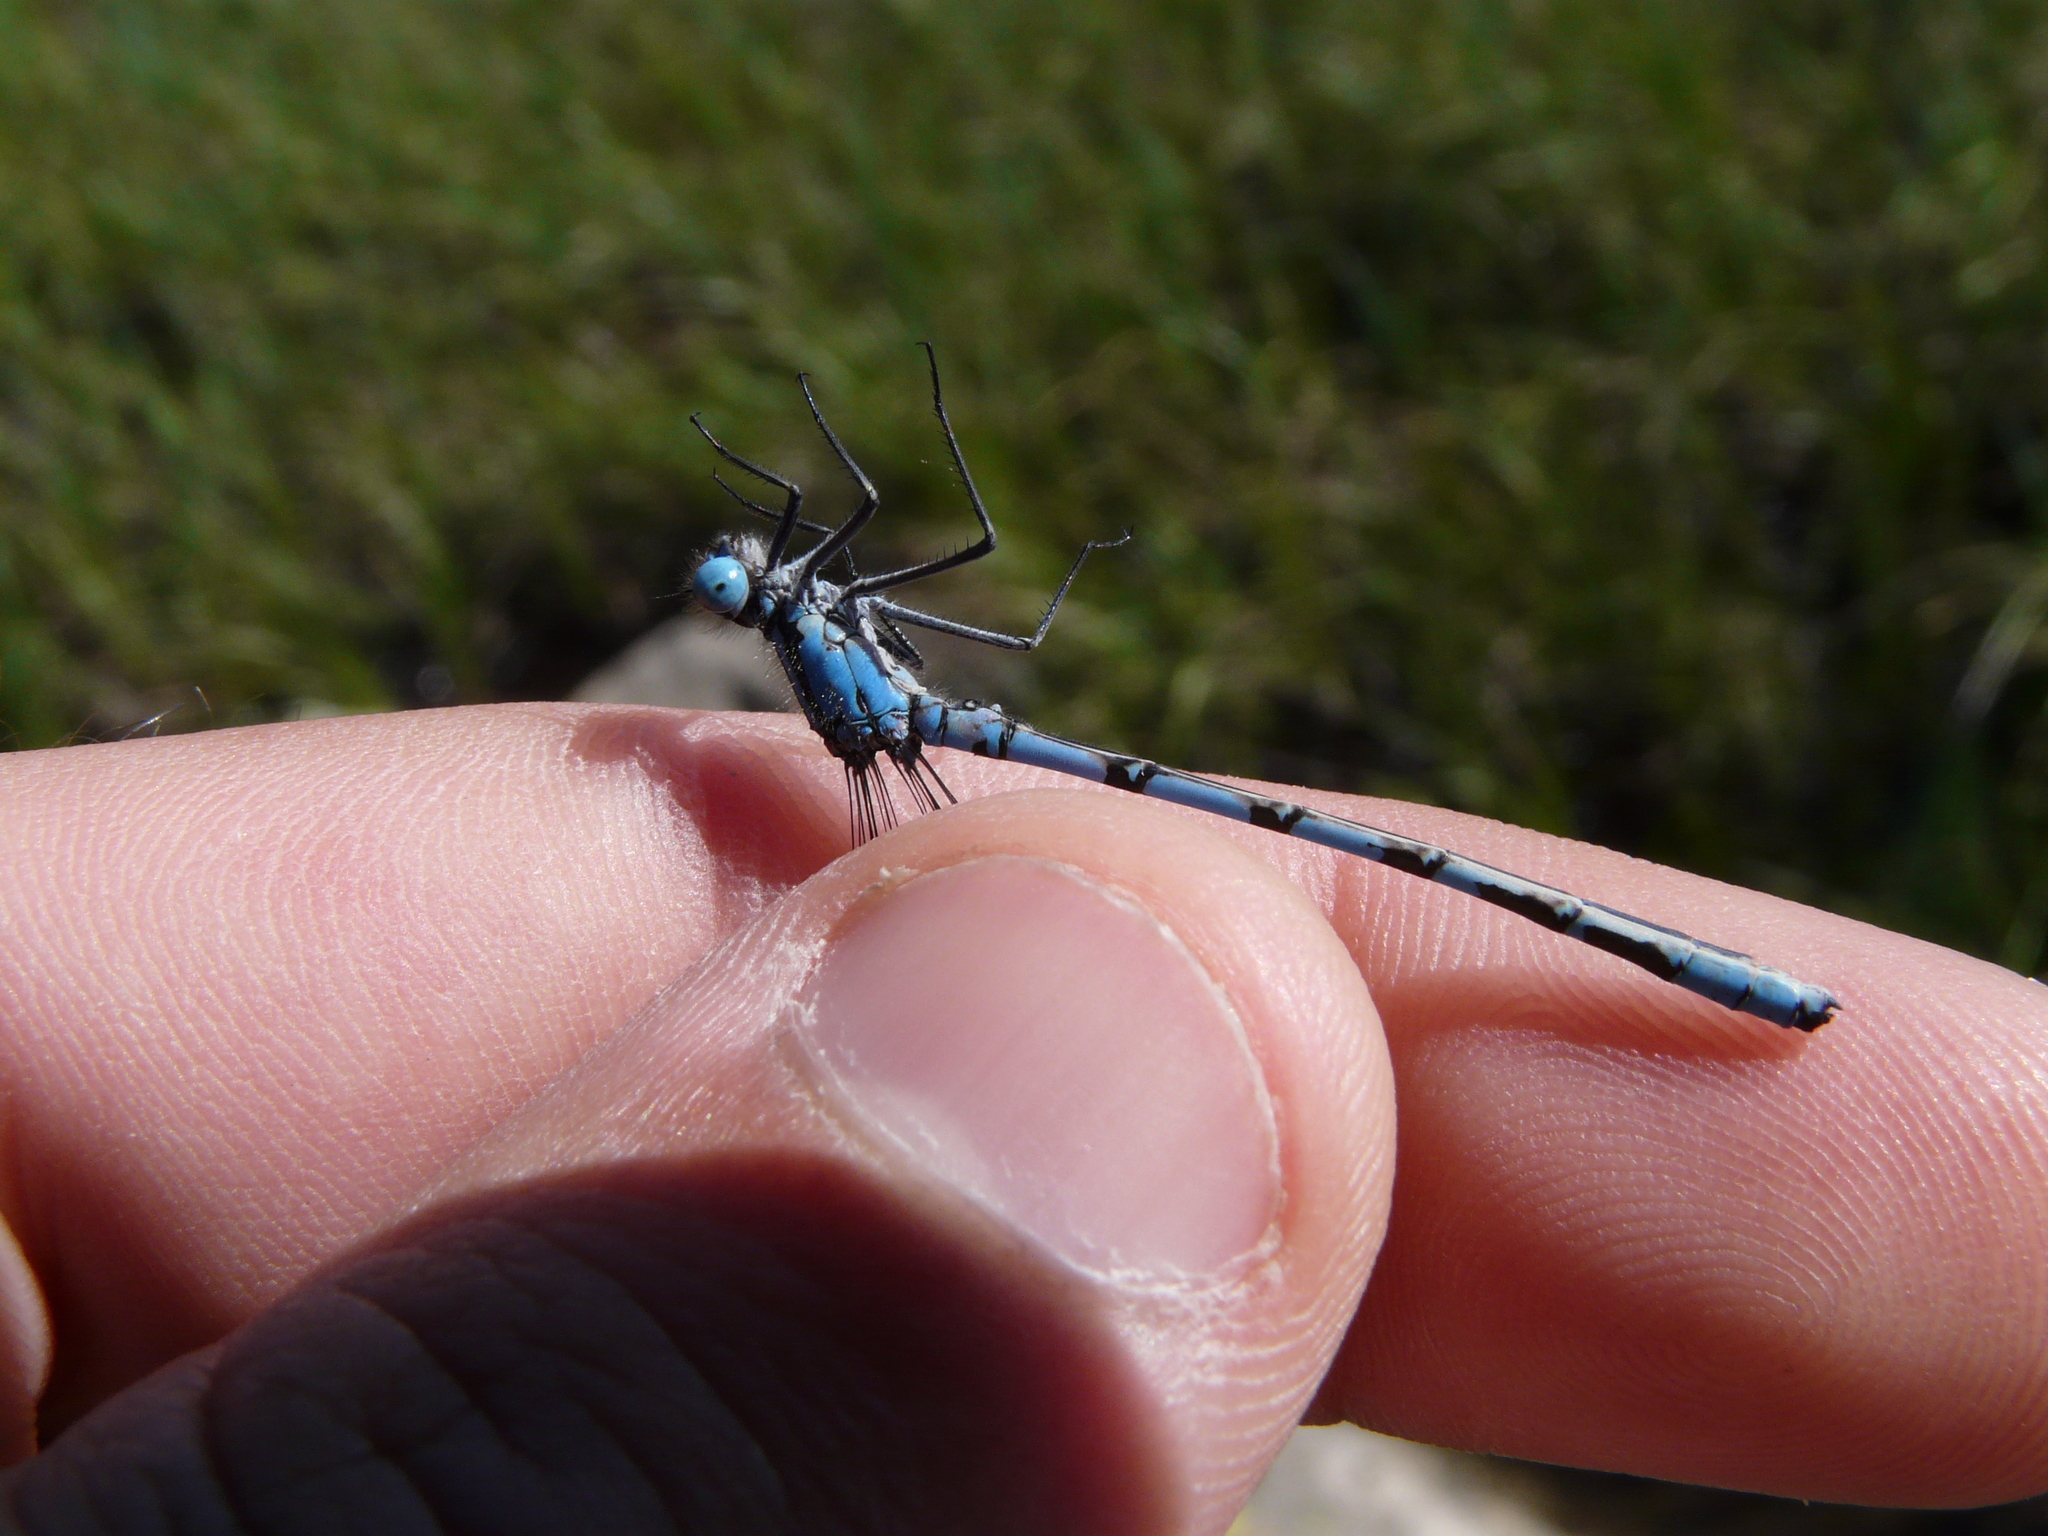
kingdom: Animalia
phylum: Arthropoda
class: Insecta
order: Odonata
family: Coenagrionidae
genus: Enallagma
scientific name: Enallagma cyathigerum
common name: Common blue damselfly
